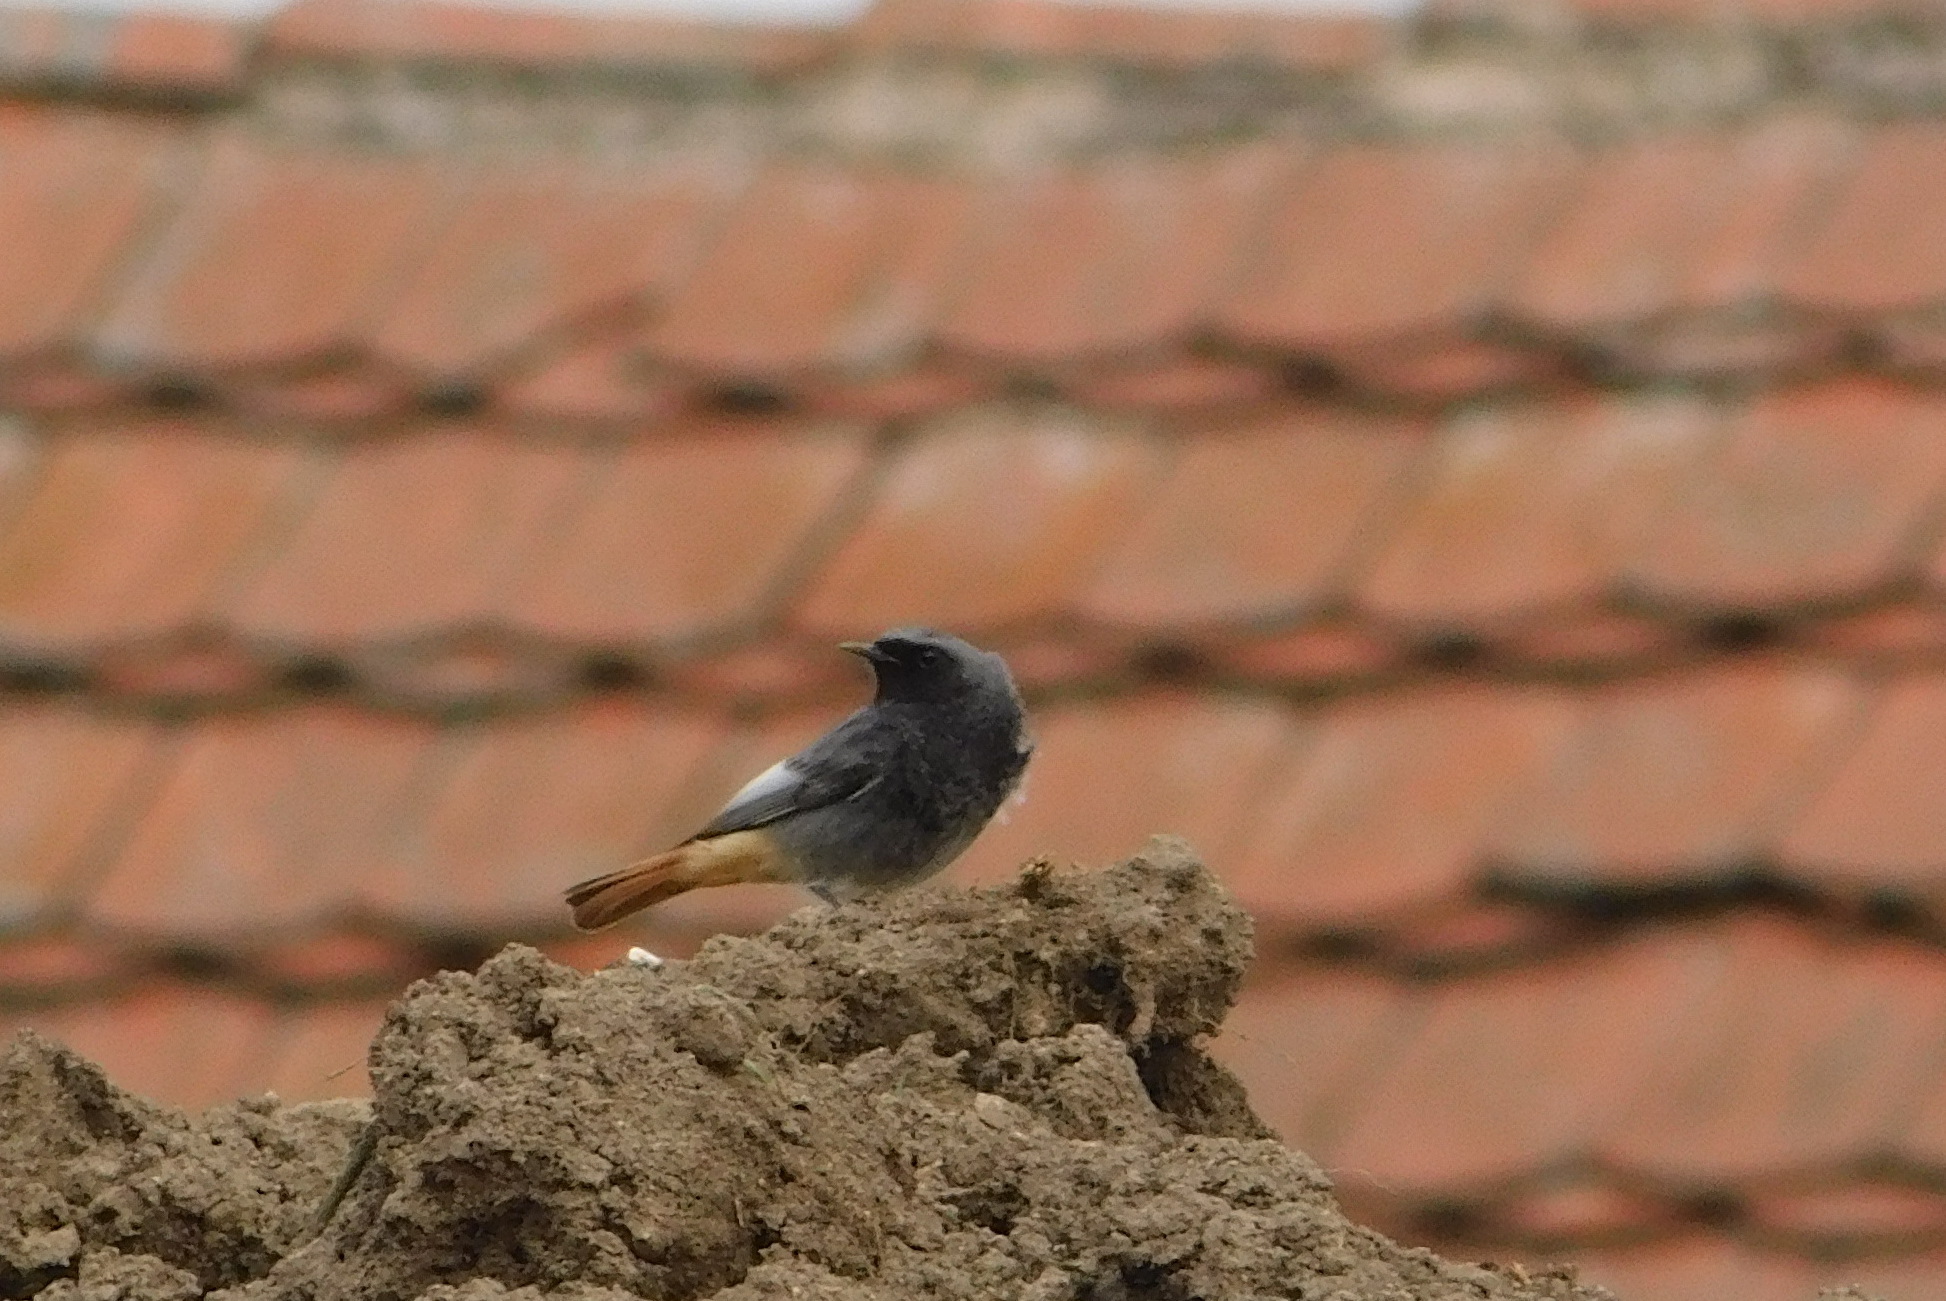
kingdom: Animalia
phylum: Chordata
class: Aves
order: Passeriformes
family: Muscicapidae
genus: Phoenicurus
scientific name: Phoenicurus ochruros
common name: Black redstart
